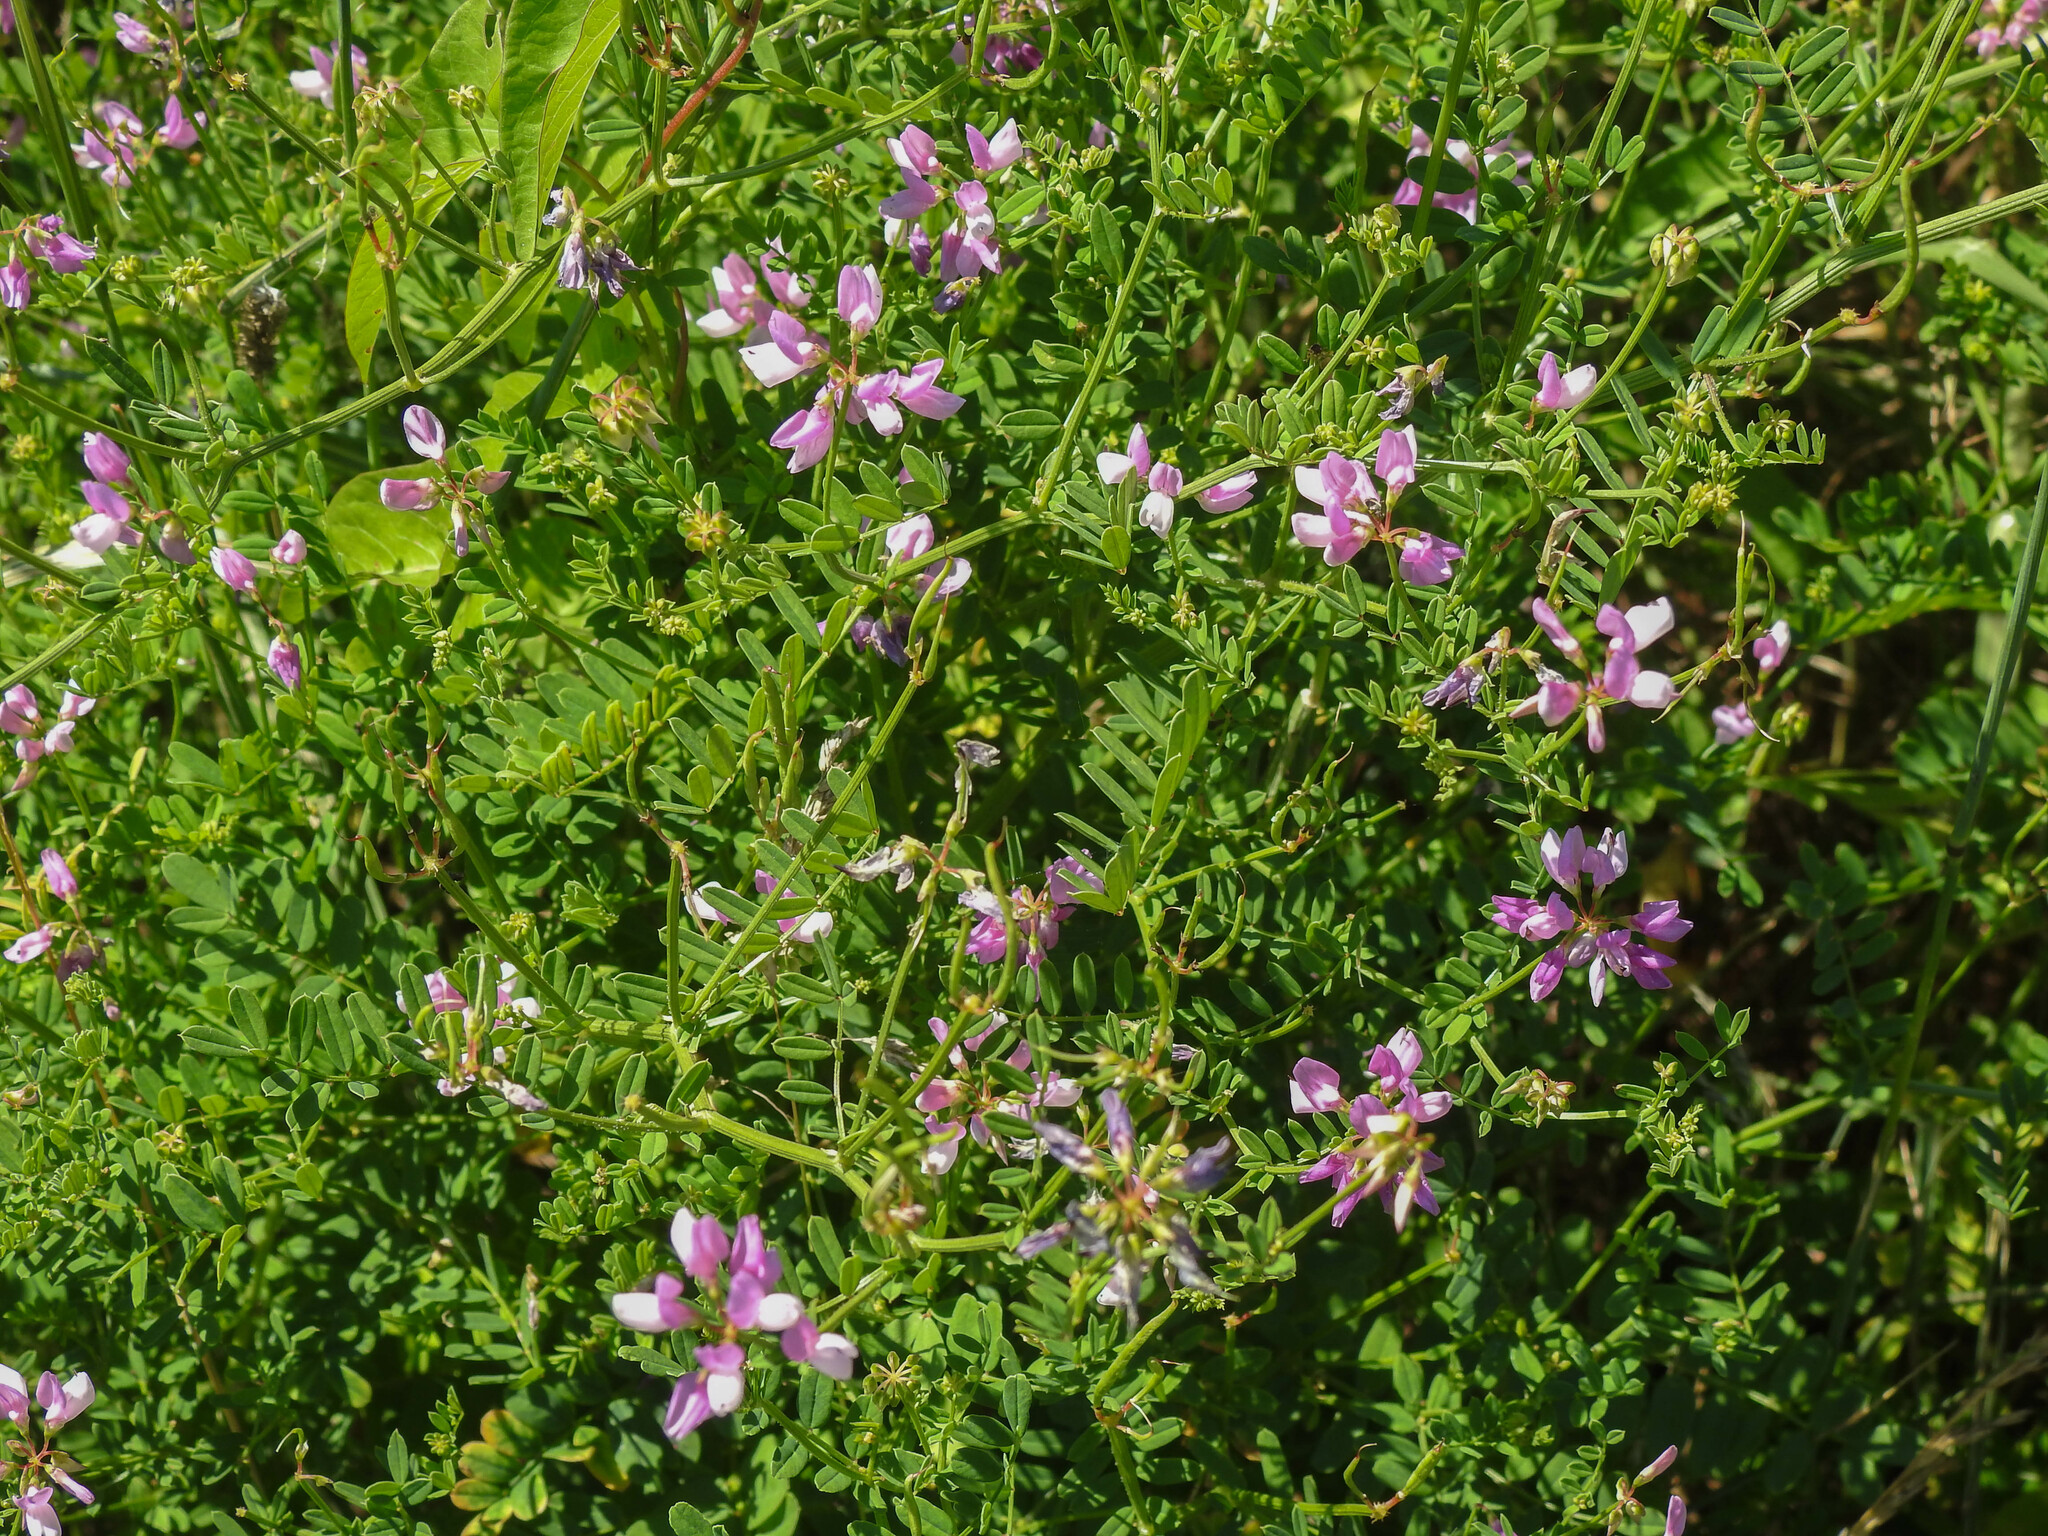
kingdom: Plantae
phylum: Tracheophyta
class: Magnoliopsida
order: Fabales
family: Fabaceae
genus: Coronilla
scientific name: Coronilla varia
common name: Crownvetch
